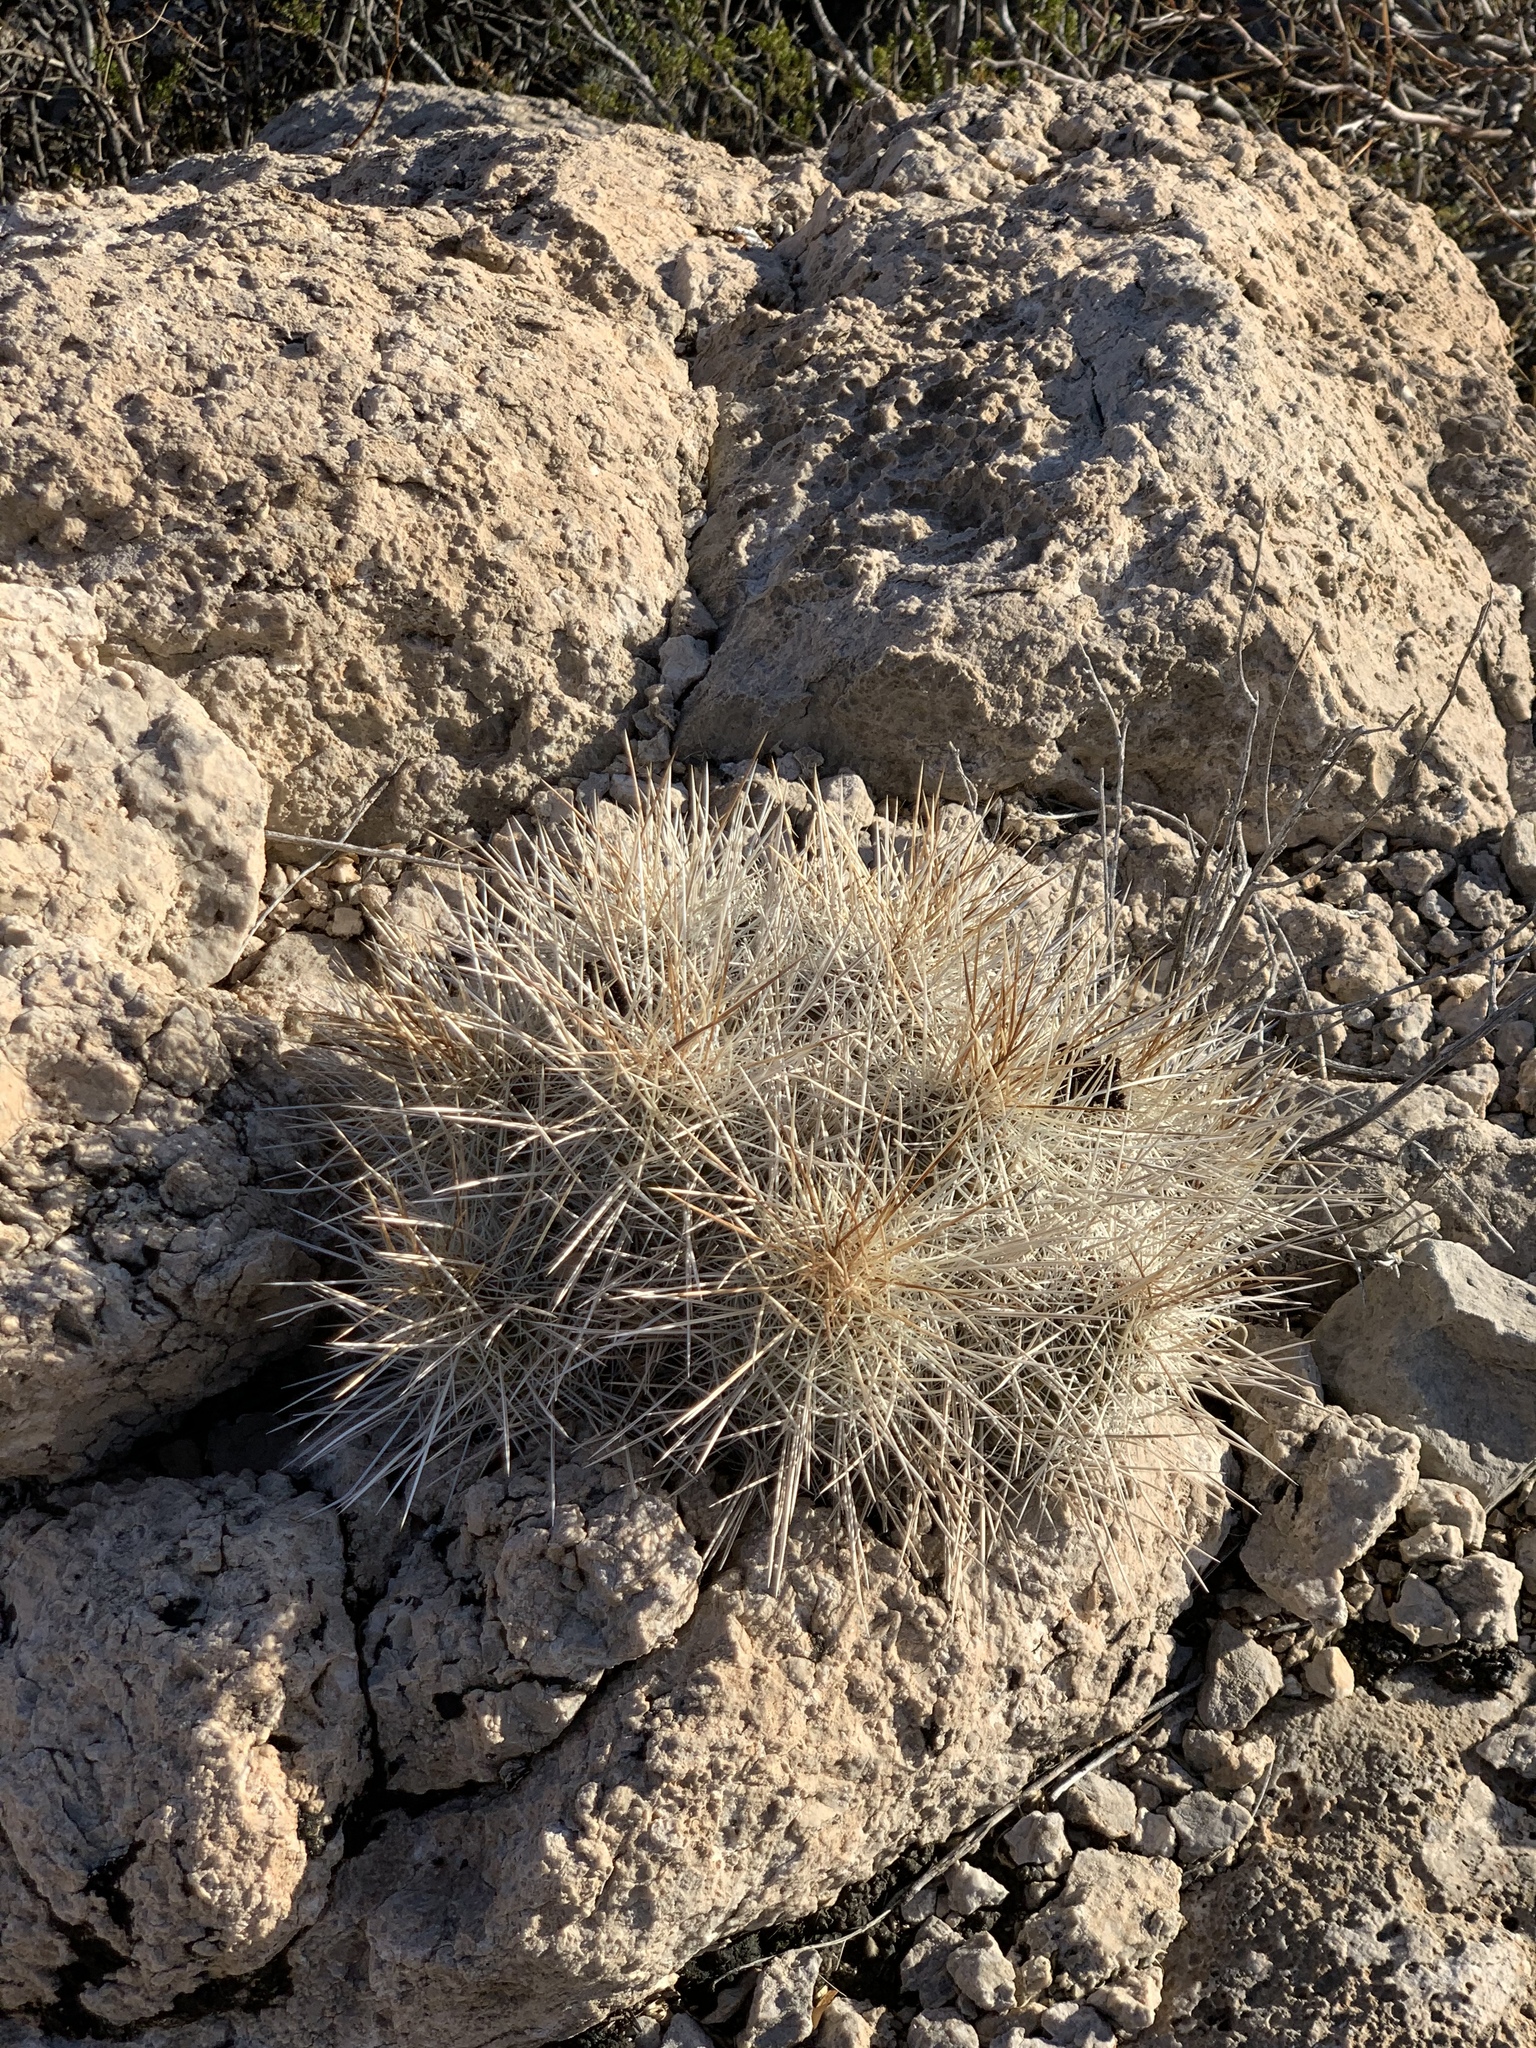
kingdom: Plantae
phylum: Tracheophyta
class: Magnoliopsida
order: Caryophyllales
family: Cactaceae
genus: Echinocereus
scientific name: Echinocereus stramineus
